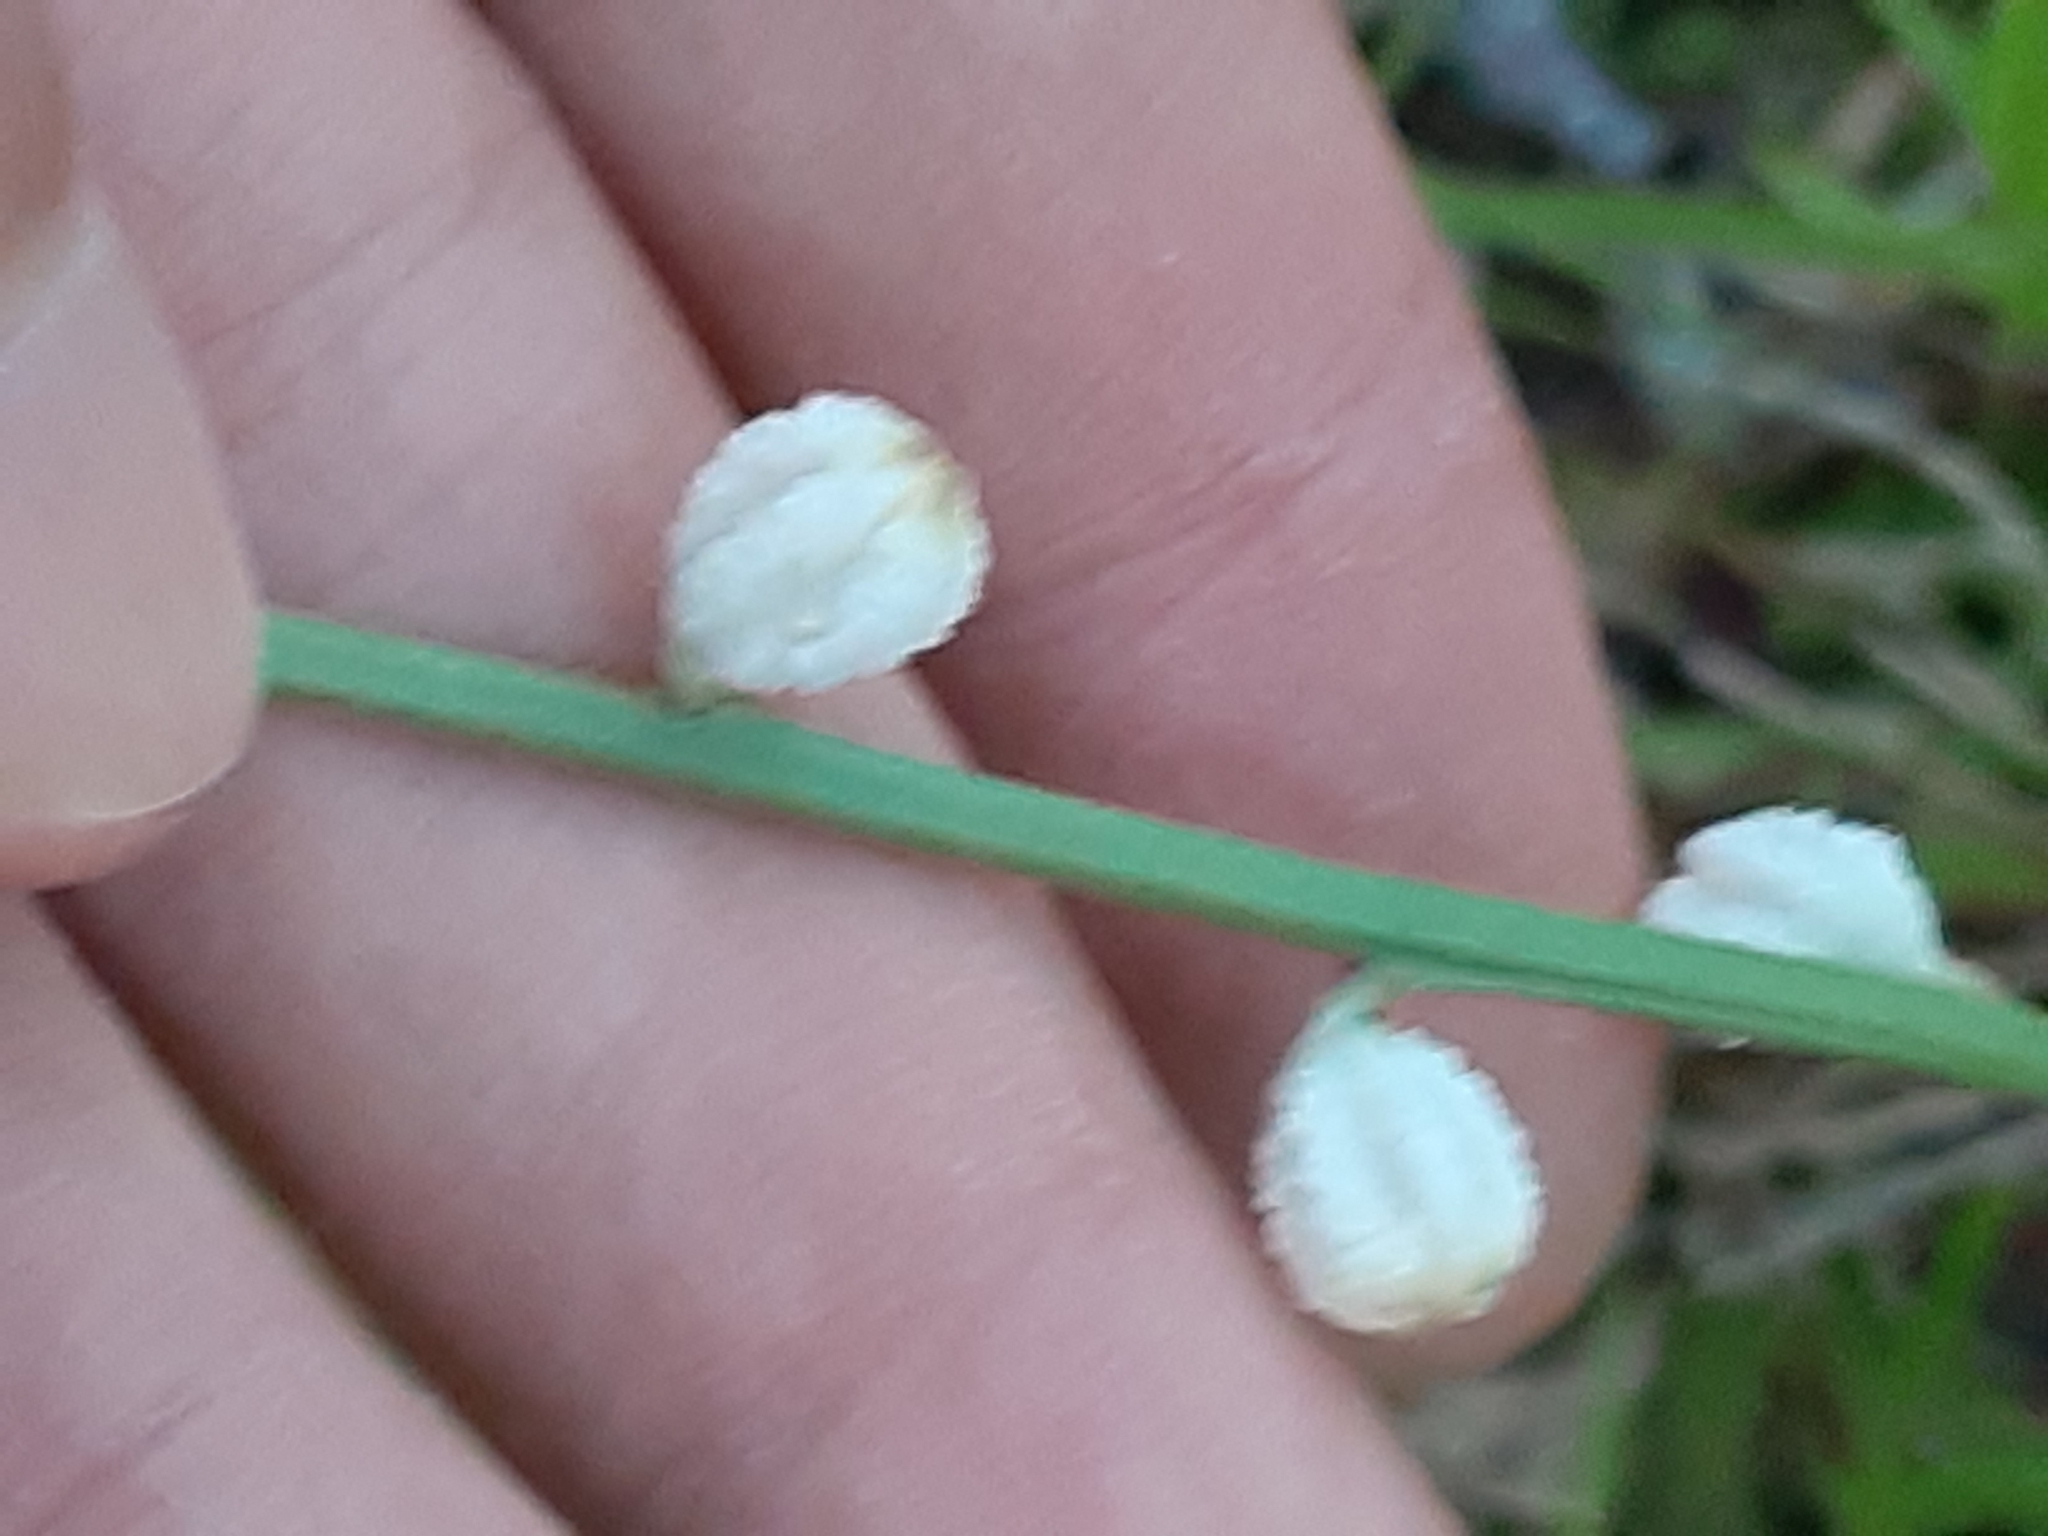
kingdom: Plantae
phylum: Tracheophyta
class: Liliopsida
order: Dioscoreales
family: Nartheciaceae
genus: Aletris
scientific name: Aletris obovata
